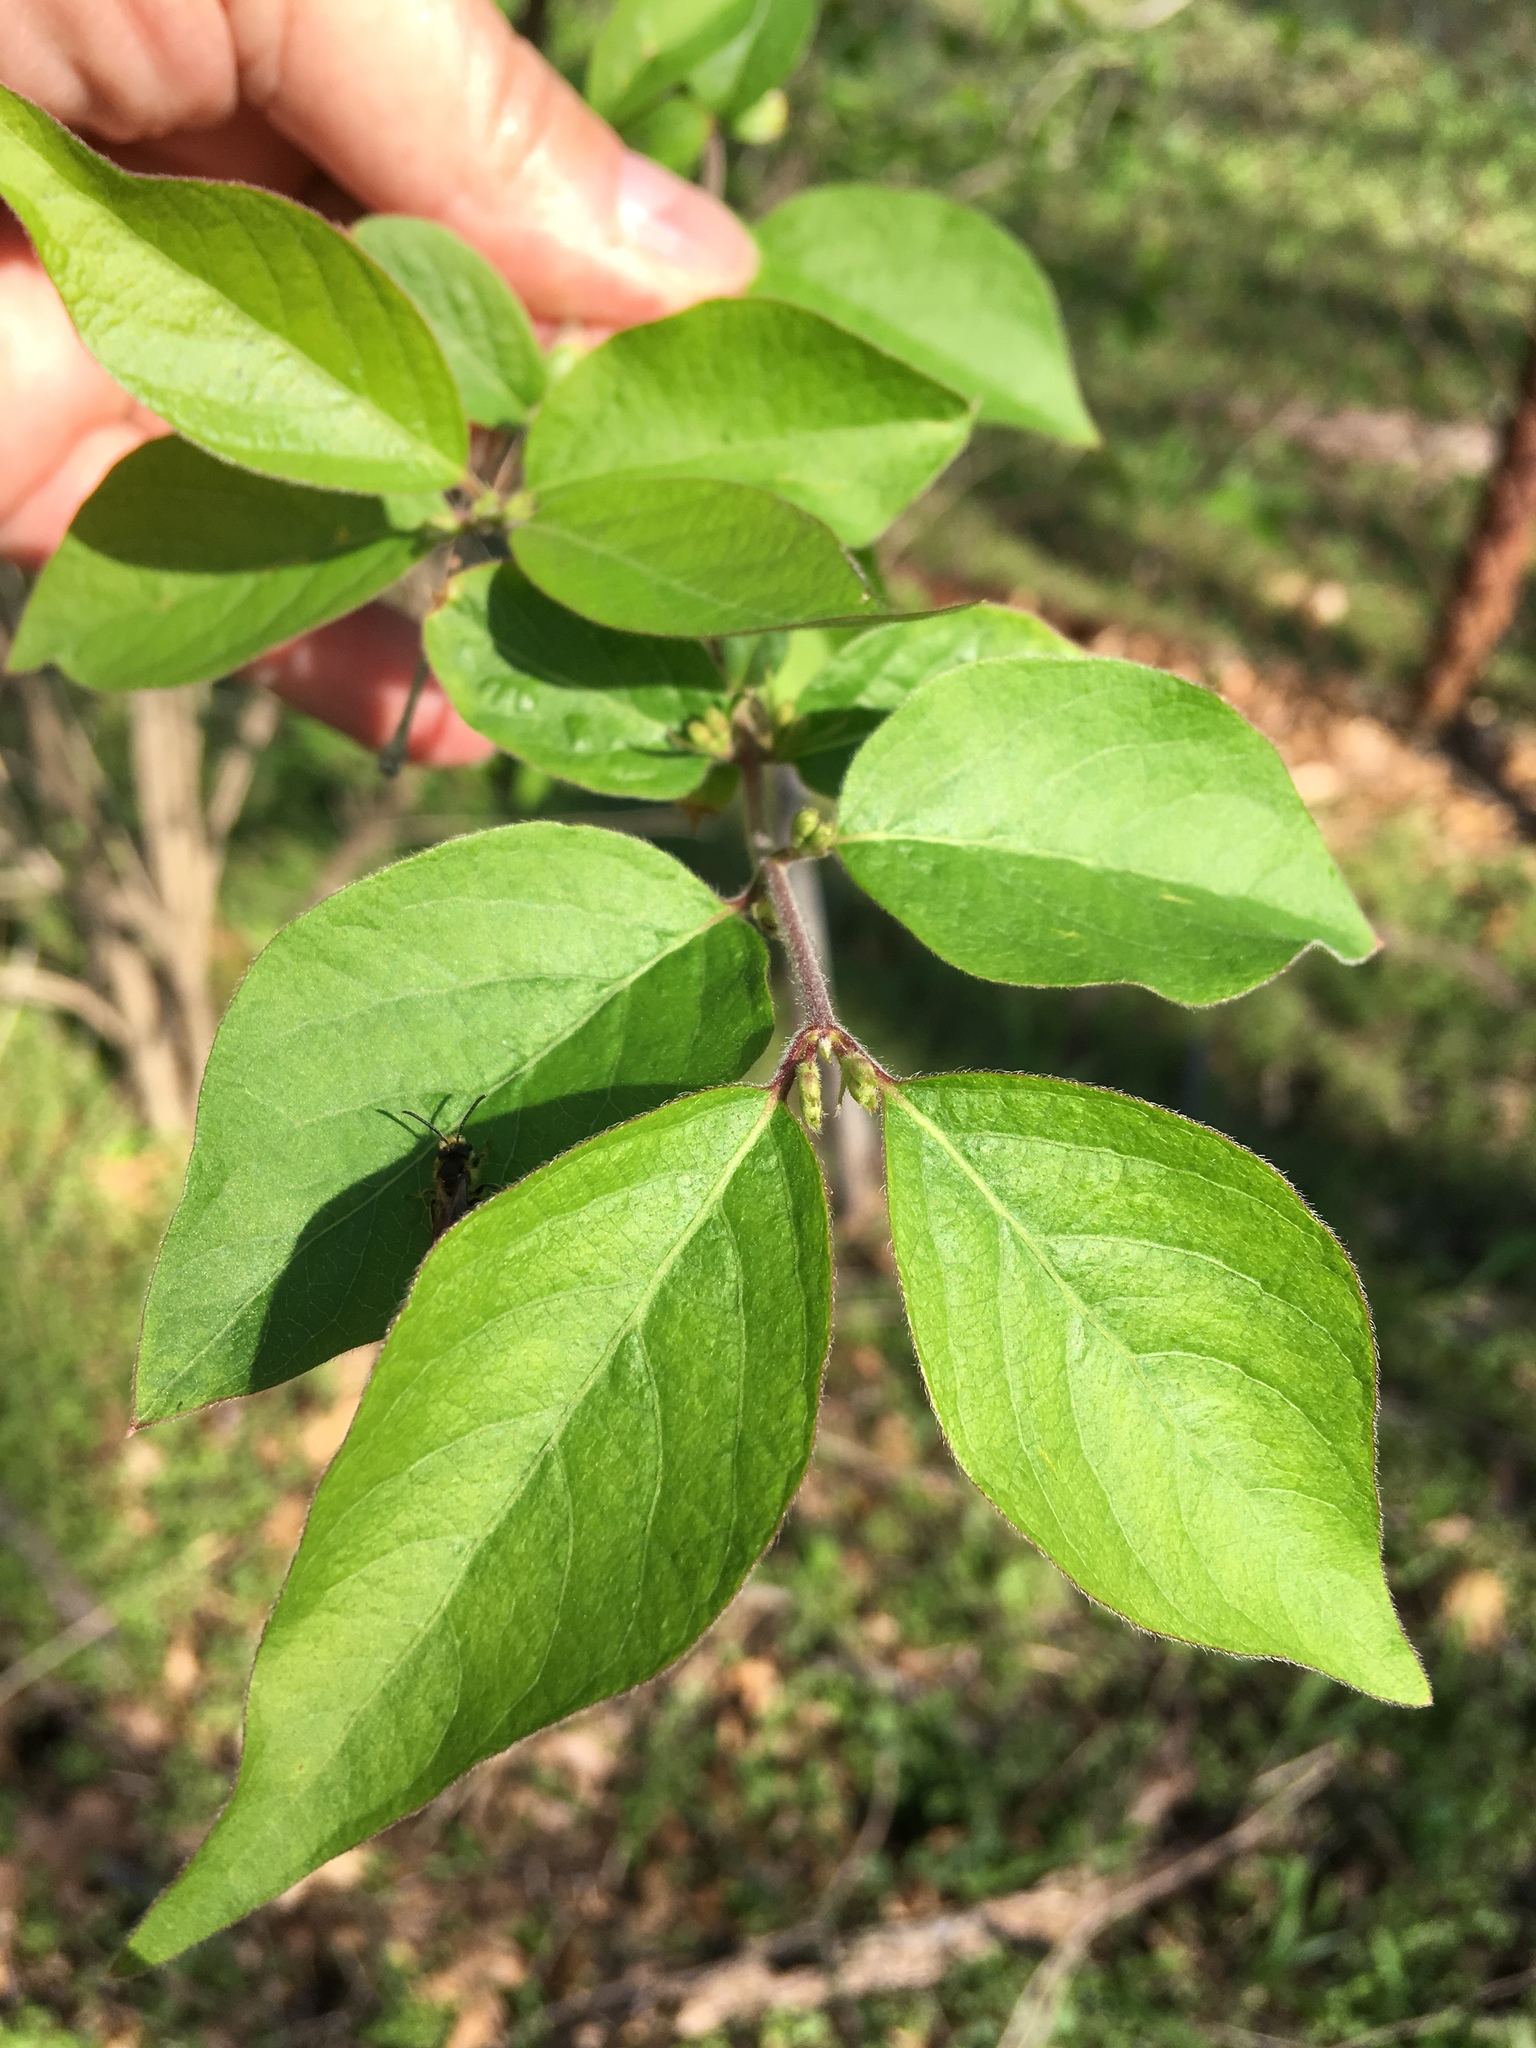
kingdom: Plantae
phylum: Tracheophyta
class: Magnoliopsida
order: Dipsacales
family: Caprifoliaceae
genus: Lonicera
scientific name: Lonicera maackii
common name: Amur honeysuckle
